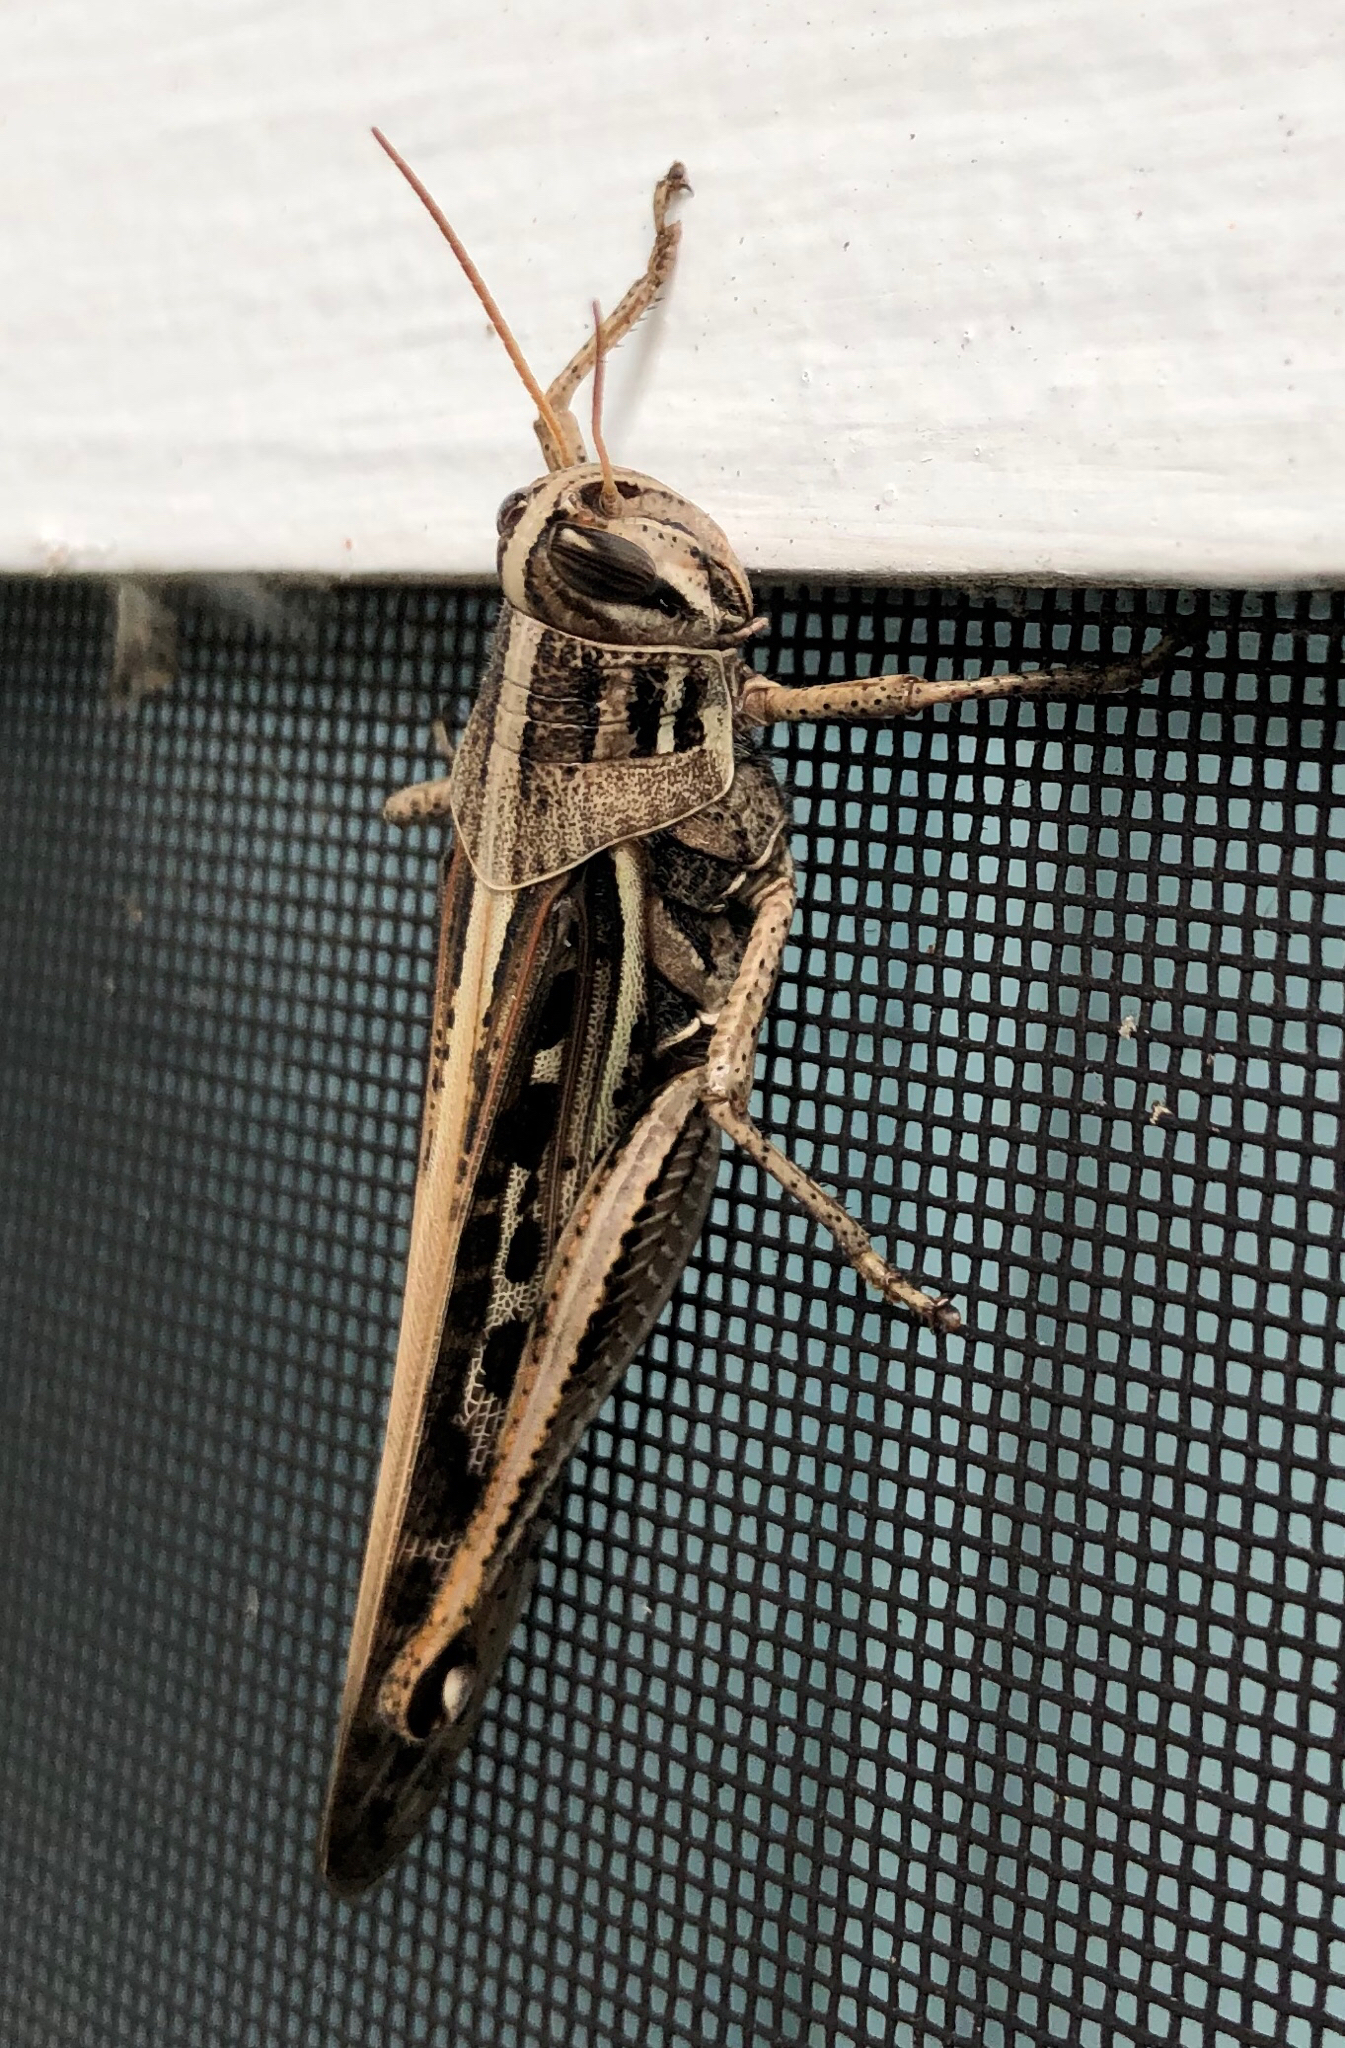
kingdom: Animalia
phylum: Arthropoda
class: Insecta
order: Orthoptera
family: Acrididae
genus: Schistocerca
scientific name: Schistocerca serialis
